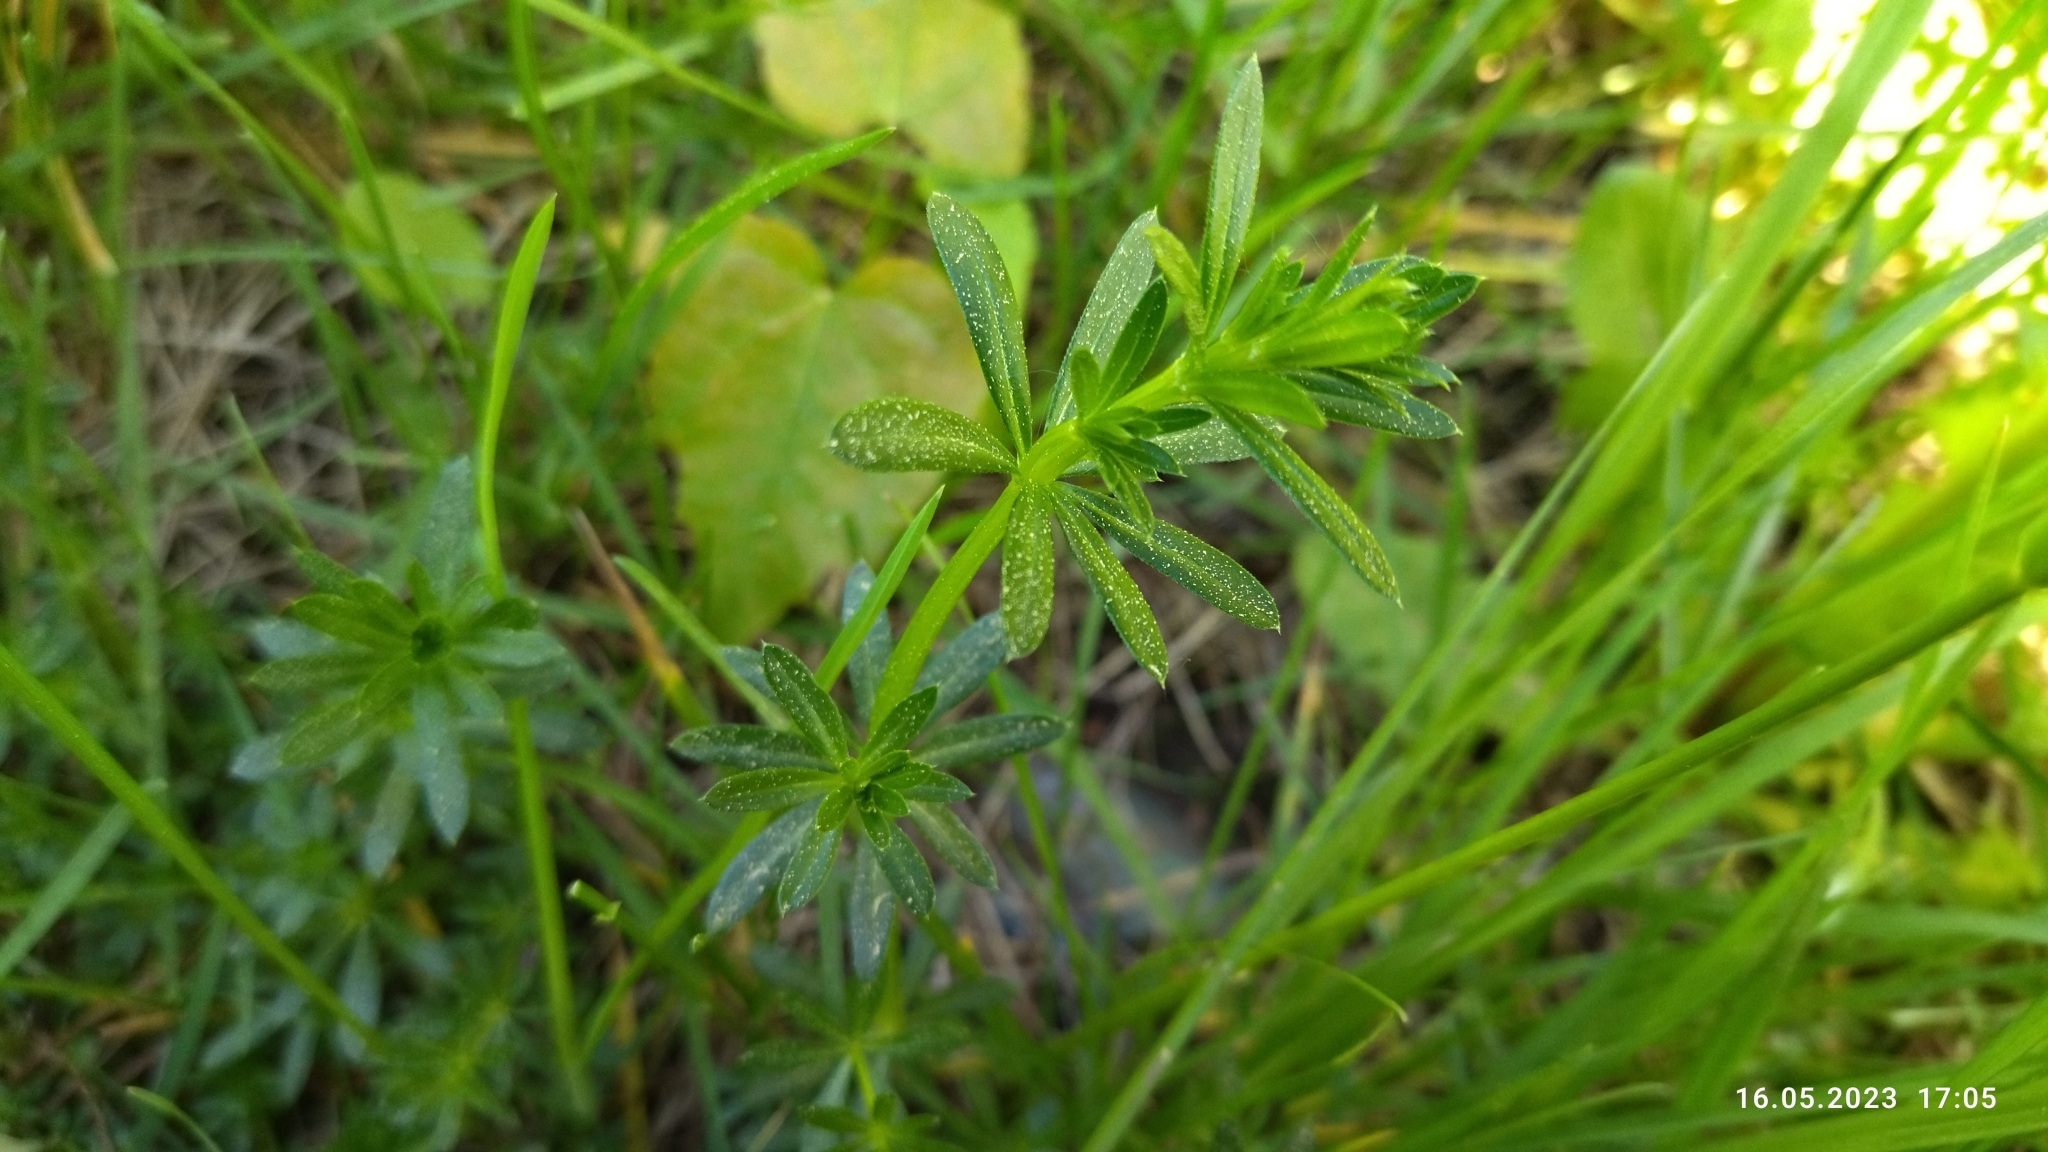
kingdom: Plantae
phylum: Tracheophyta
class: Magnoliopsida
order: Gentianales
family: Rubiaceae
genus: Galium
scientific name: Galium mollugo
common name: Hedge bedstraw
